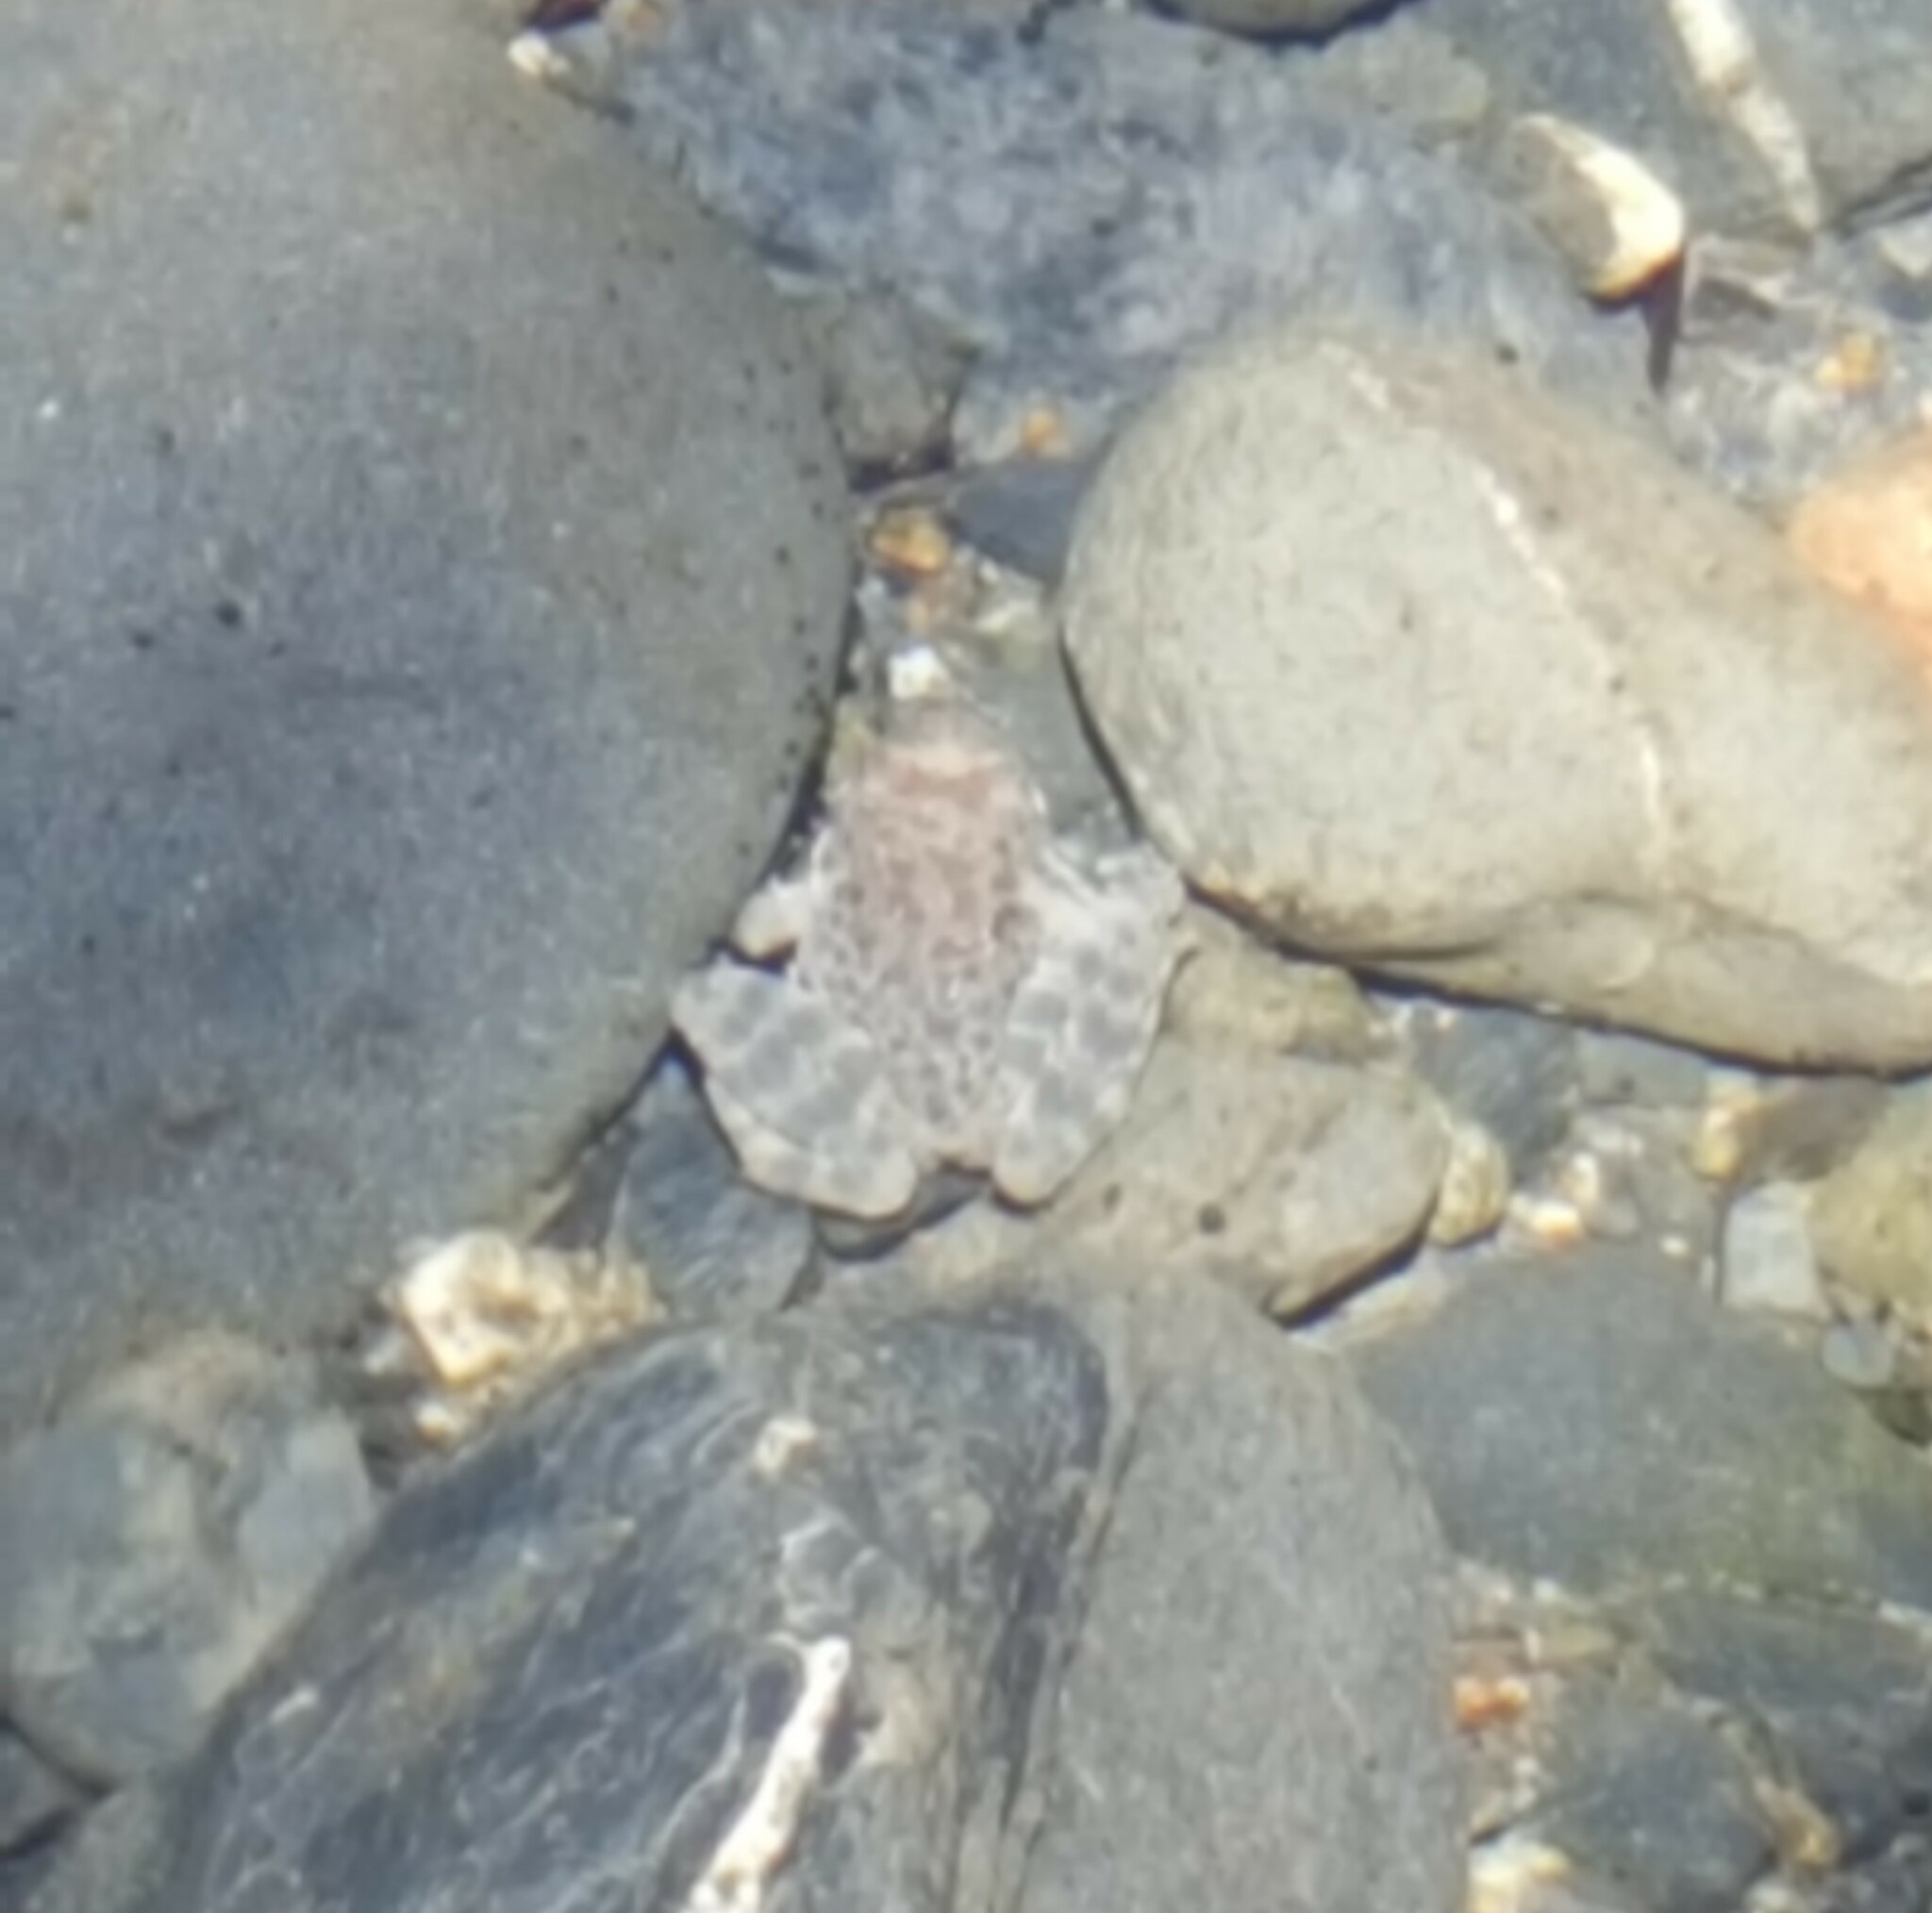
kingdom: Animalia
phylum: Chordata
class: Amphibia
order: Anura
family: Ranidae
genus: Rana
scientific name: Rana boylii
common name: Foothill yellow-legged frog
